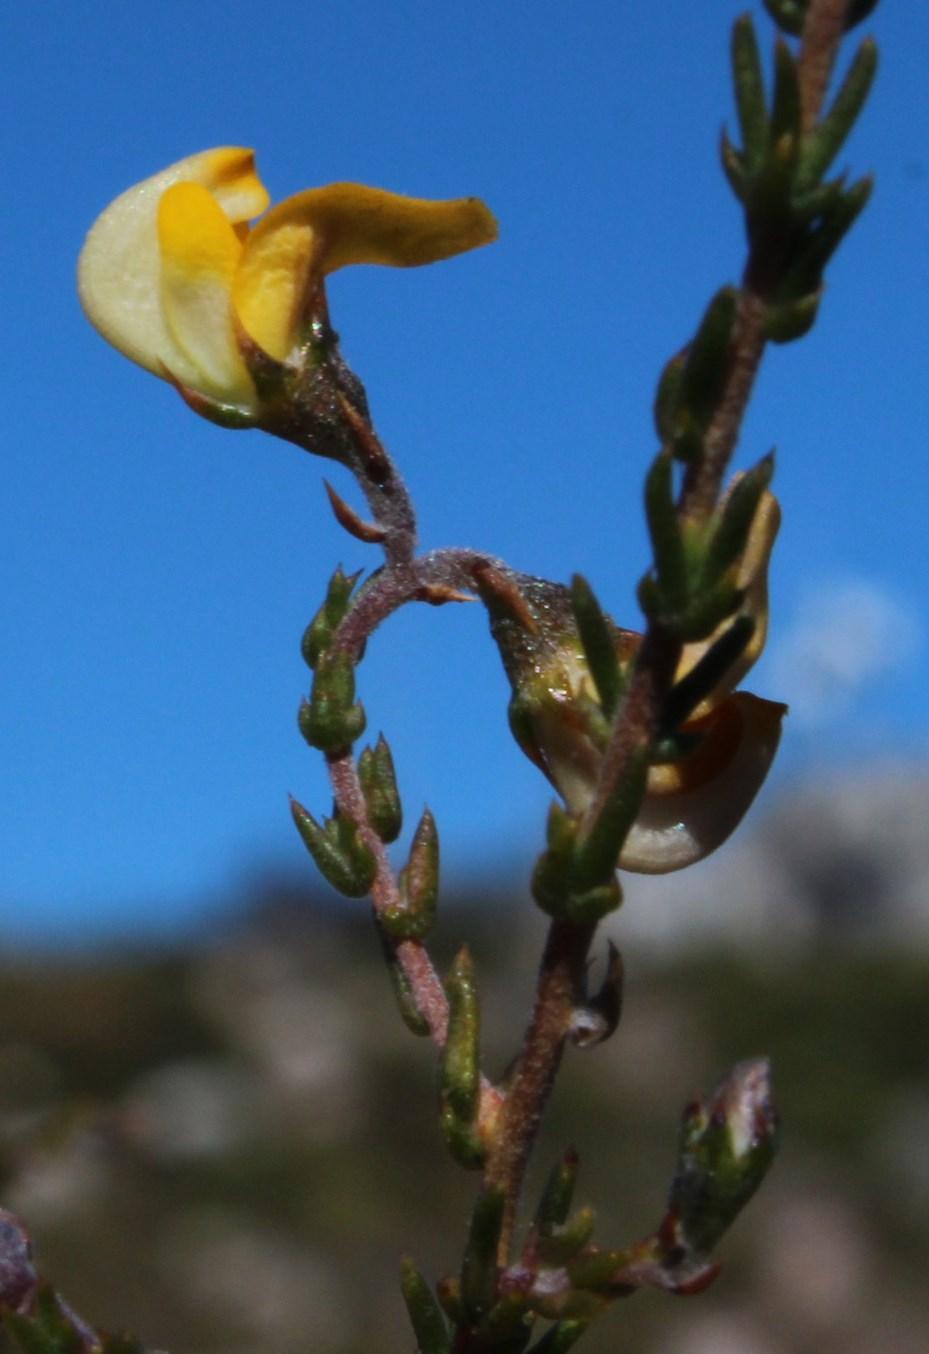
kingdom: Plantae
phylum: Tracheophyta
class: Magnoliopsida
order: Fabales
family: Fabaceae
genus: Aspalathus
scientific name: Aspalathus microphylla
